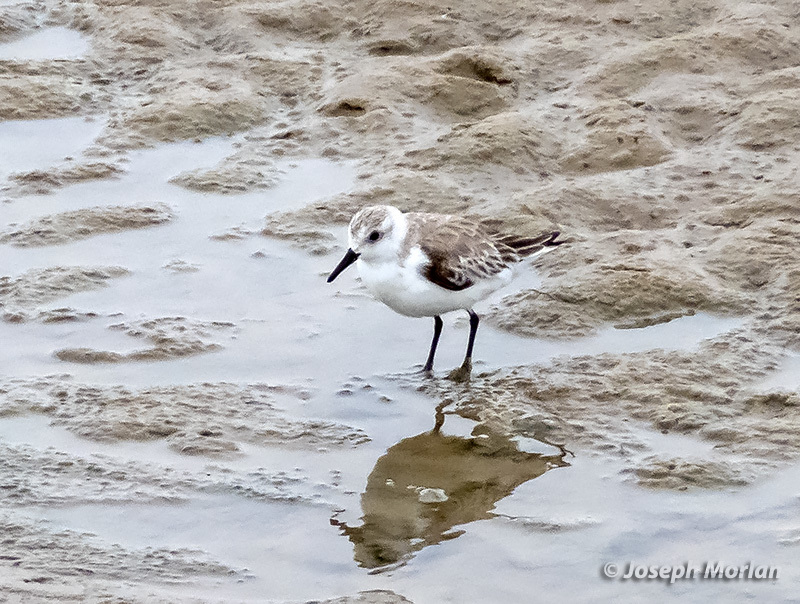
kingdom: Animalia
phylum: Chordata
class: Aves
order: Charadriiformes
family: Scolopacidae
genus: Calidris
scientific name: Calidris alba
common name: Sanderling
